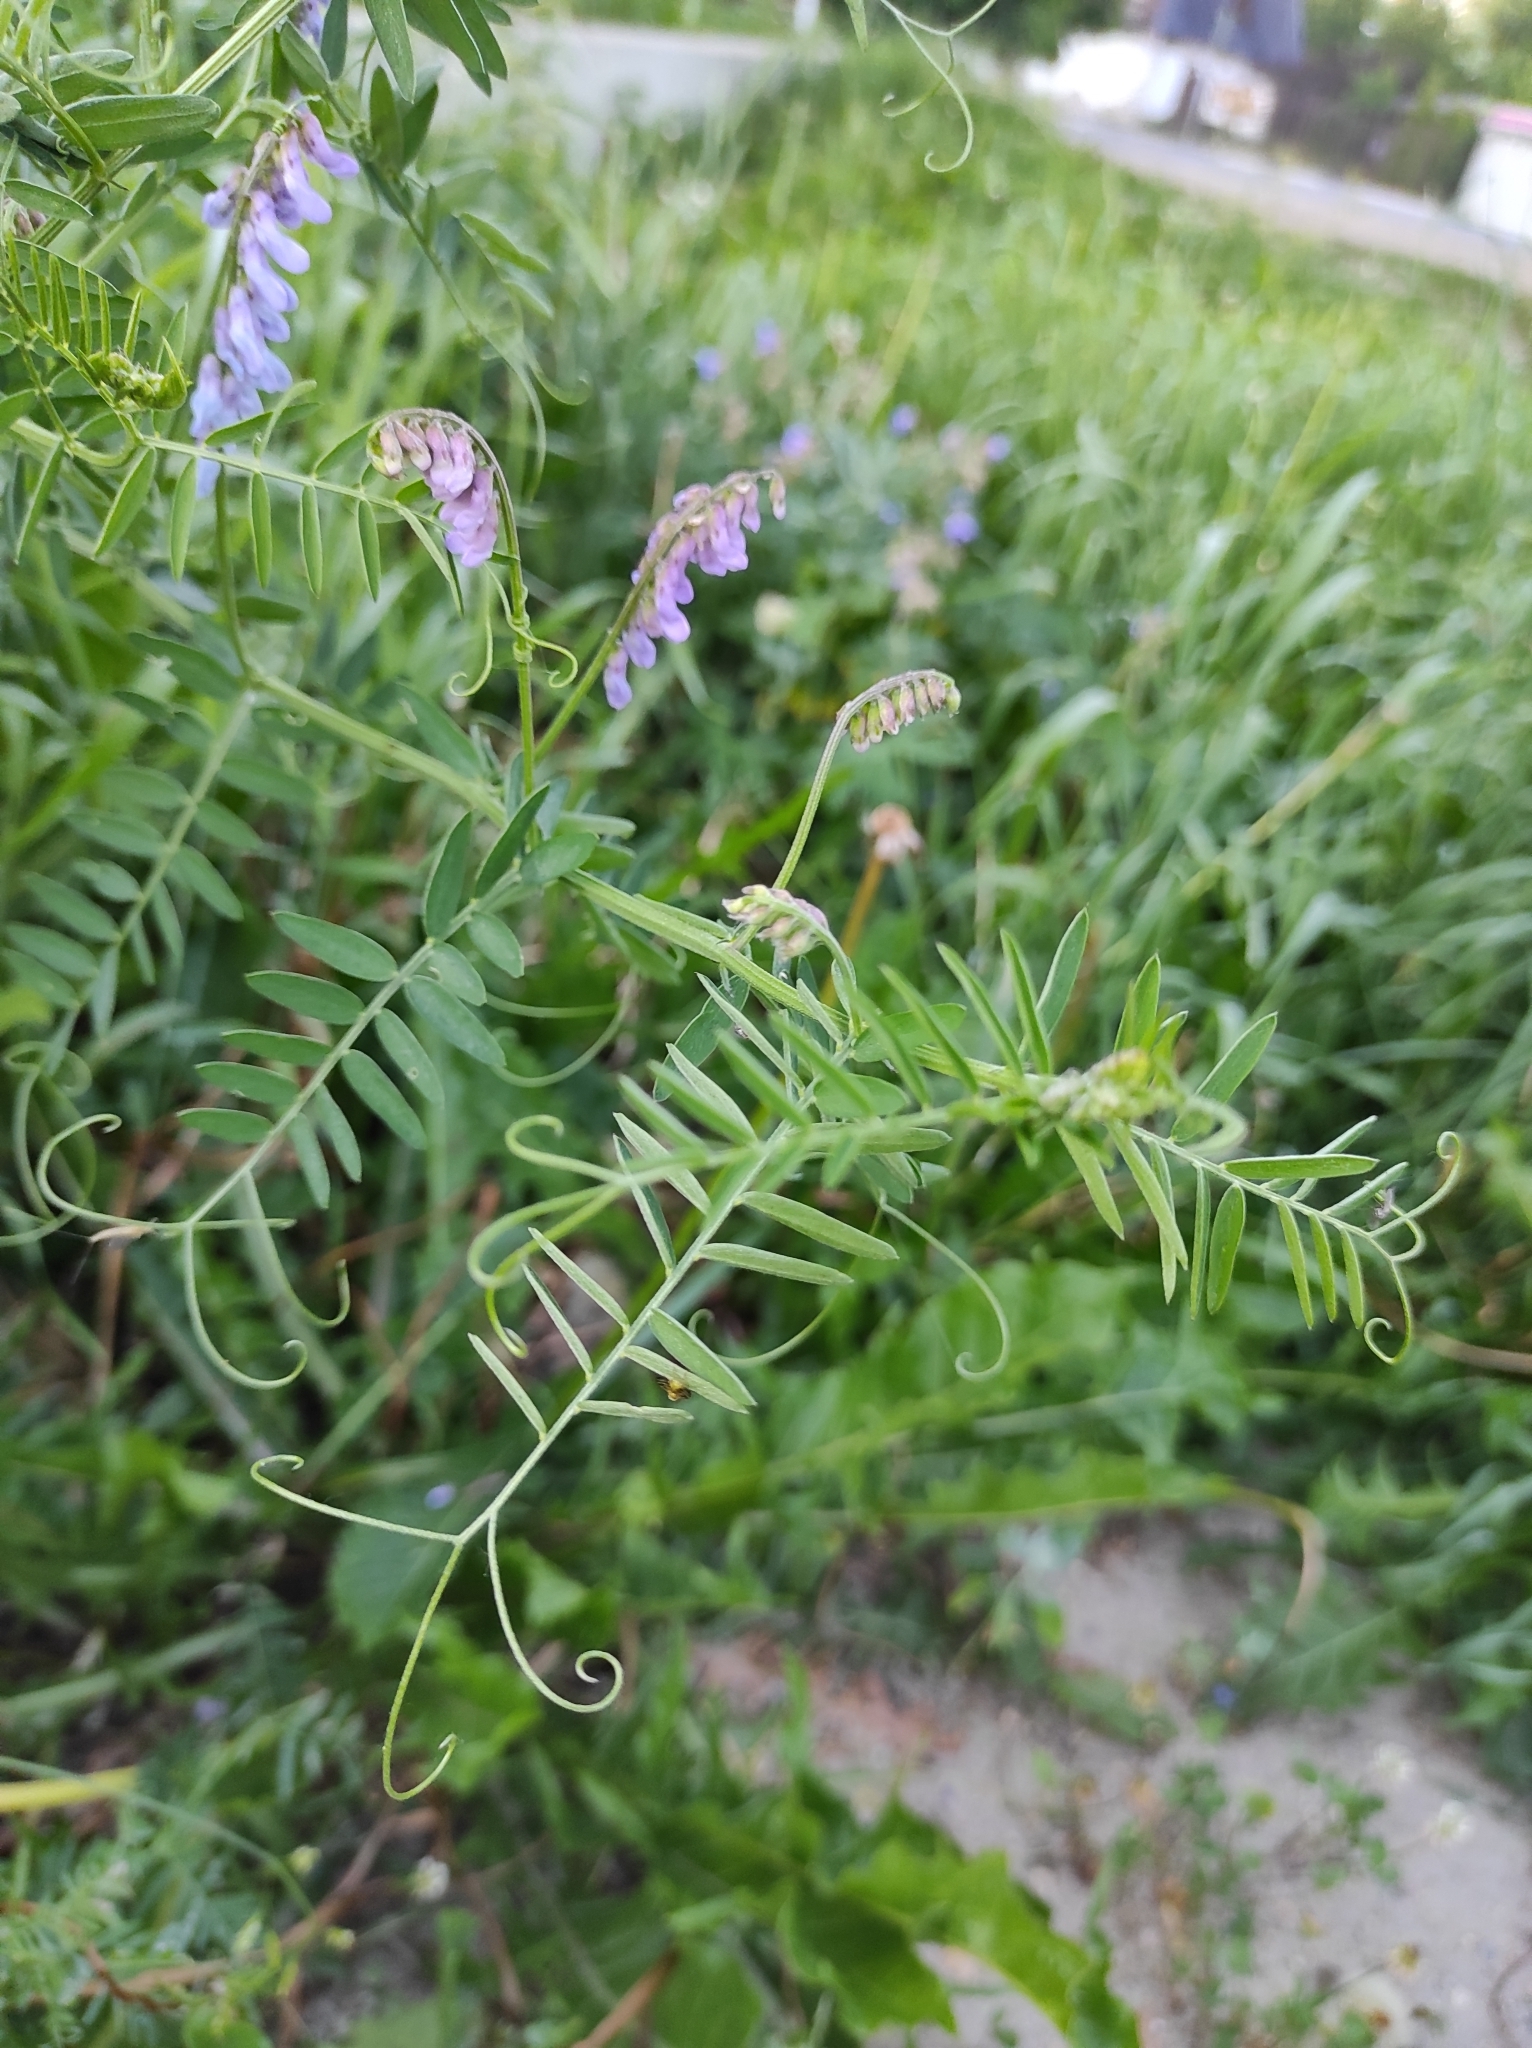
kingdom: Plantae
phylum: Tracheophyta
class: Magnoliopsida
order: Fabales
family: Fabaceae
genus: Vicia
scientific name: Vicia cracca
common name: Bird vetch
